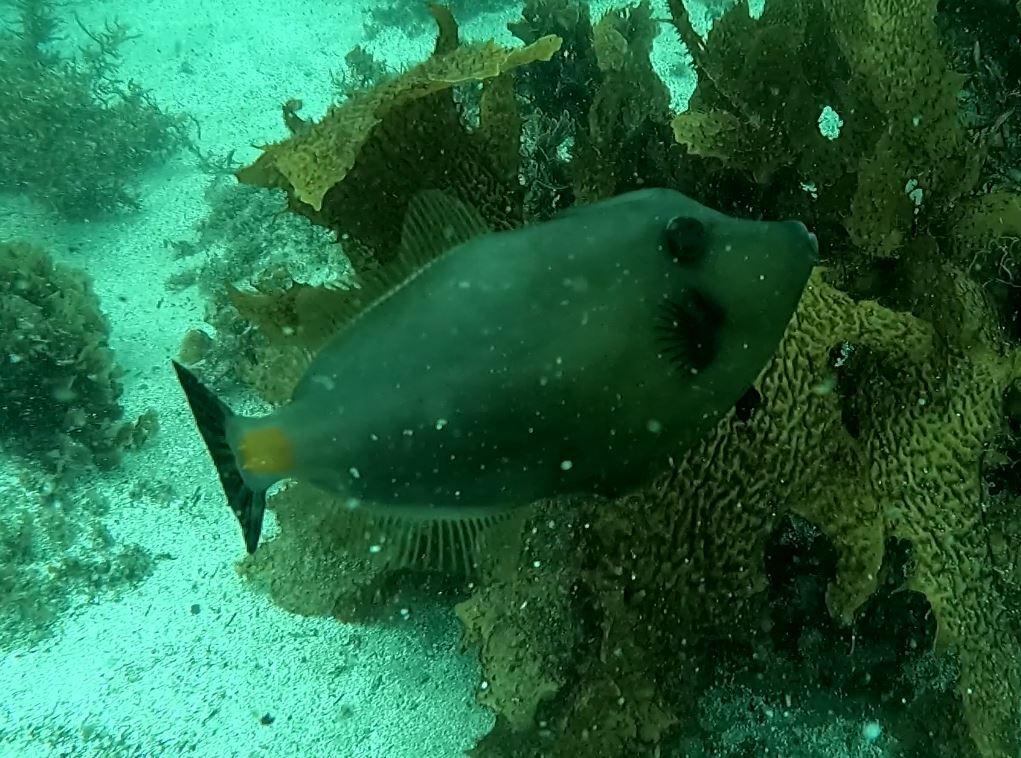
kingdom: Animalia
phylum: Chordata
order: Tetraodontiformes
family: Monacanthidae
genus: Meuschenia
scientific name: Meuschenia flavolineata
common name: Yellowstriped leatherjacket
